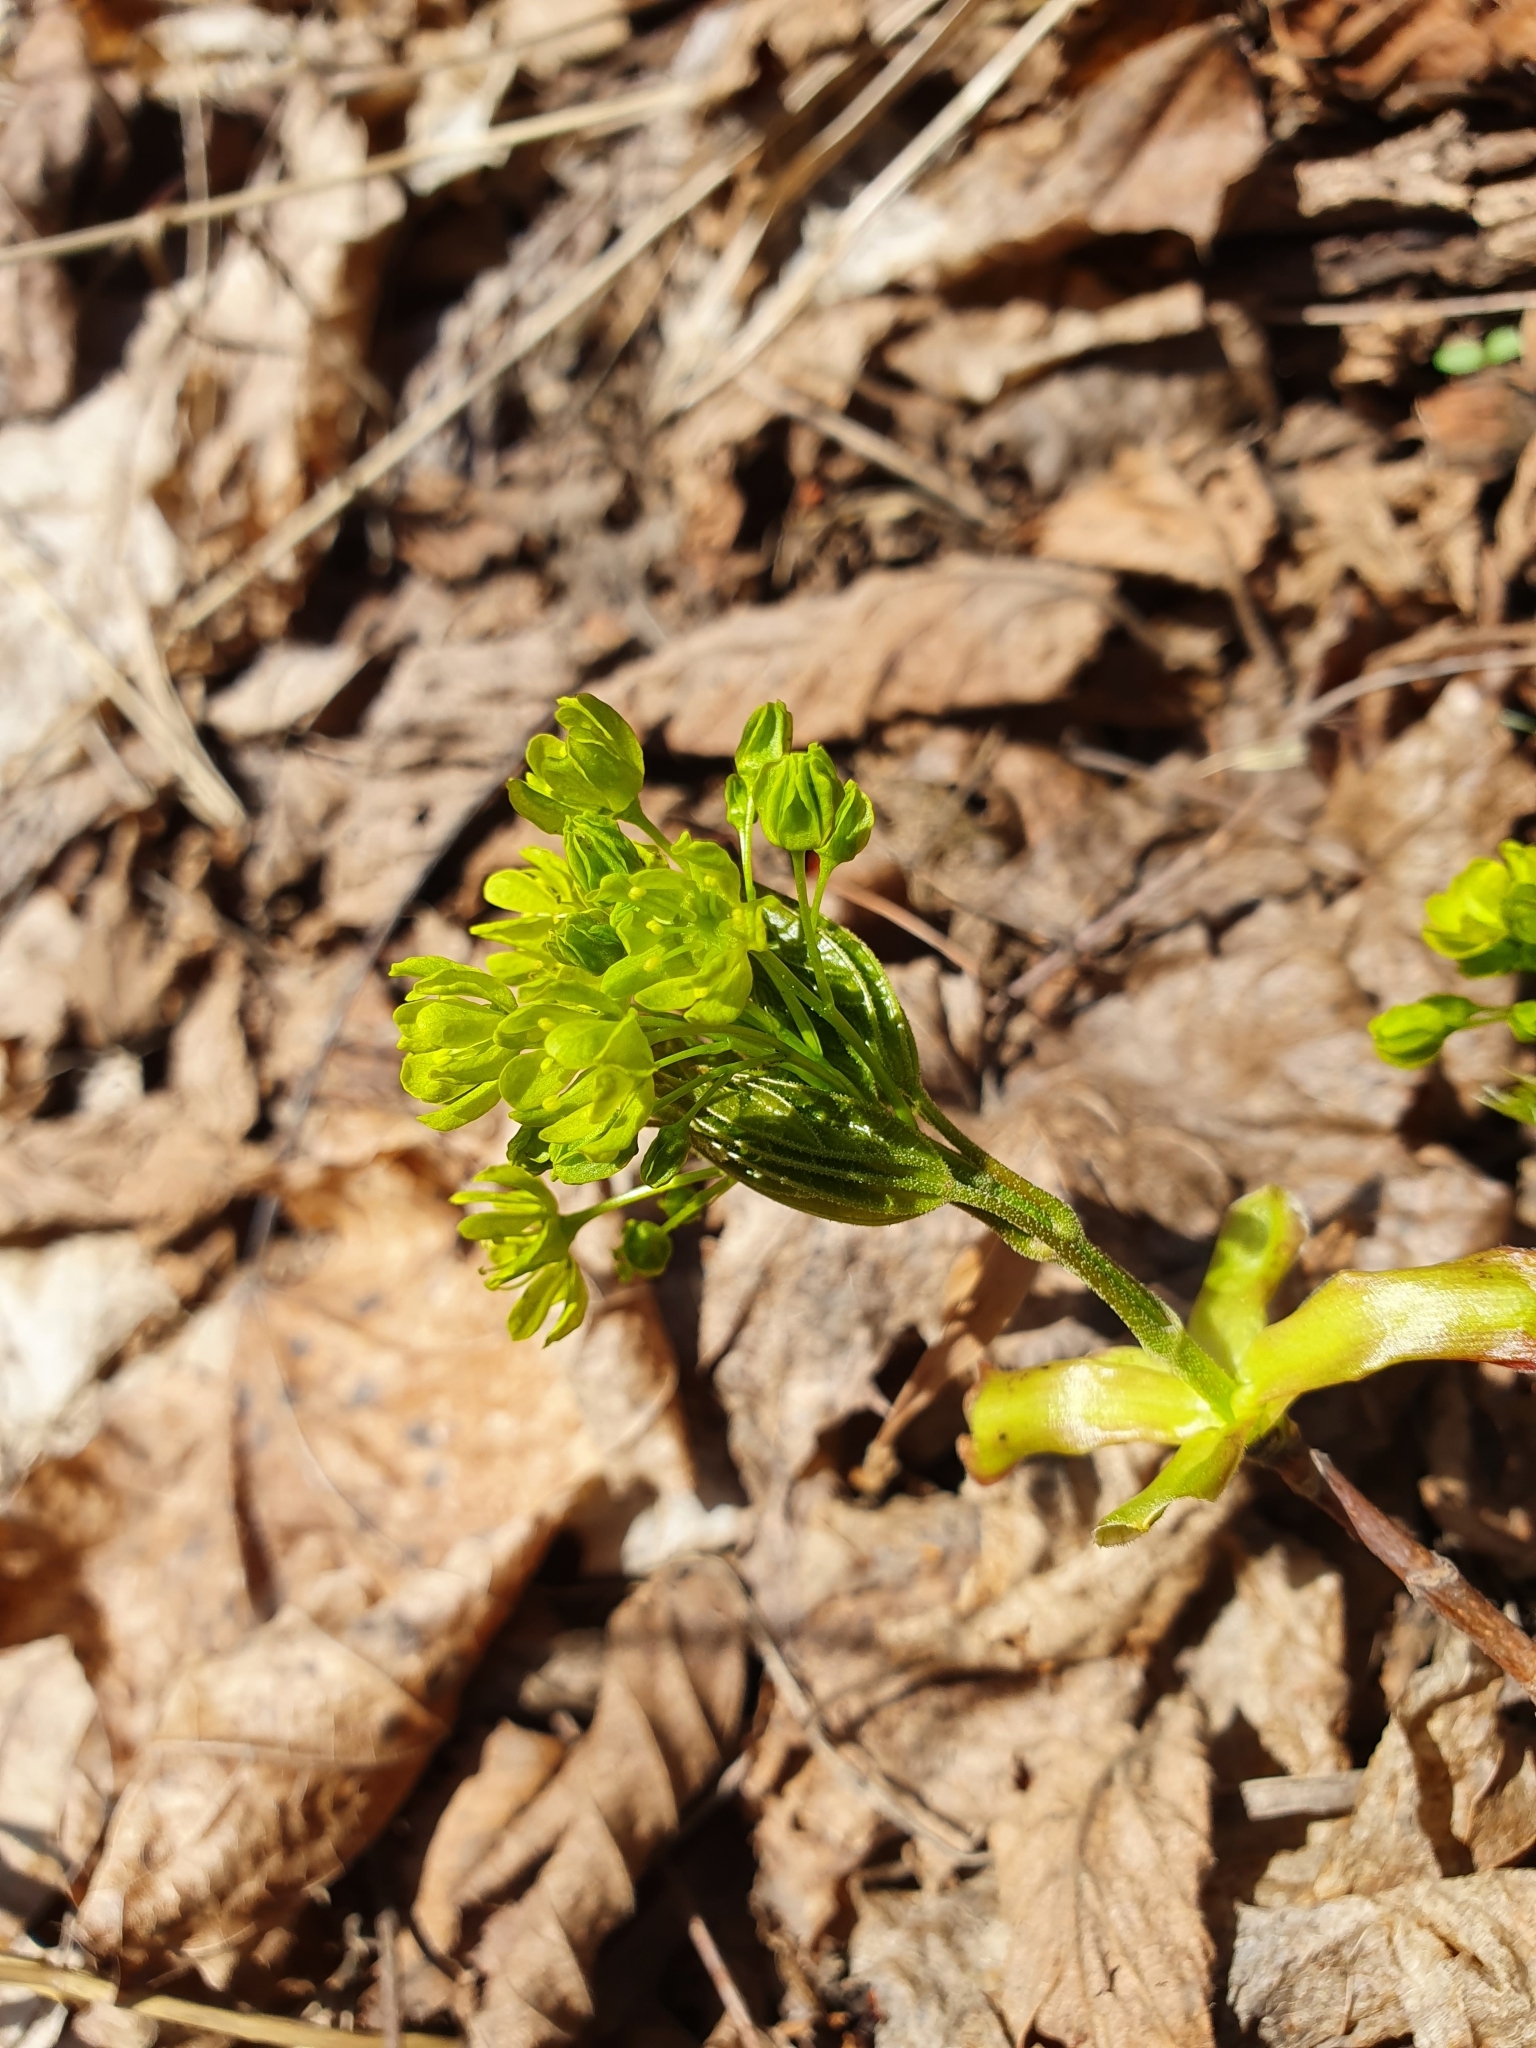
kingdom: Plantae
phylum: Tracheophyta
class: Magnoliopsida
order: Sapindales
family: Sapindaceae
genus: Acer
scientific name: Acer platanoides
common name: Norway maple
